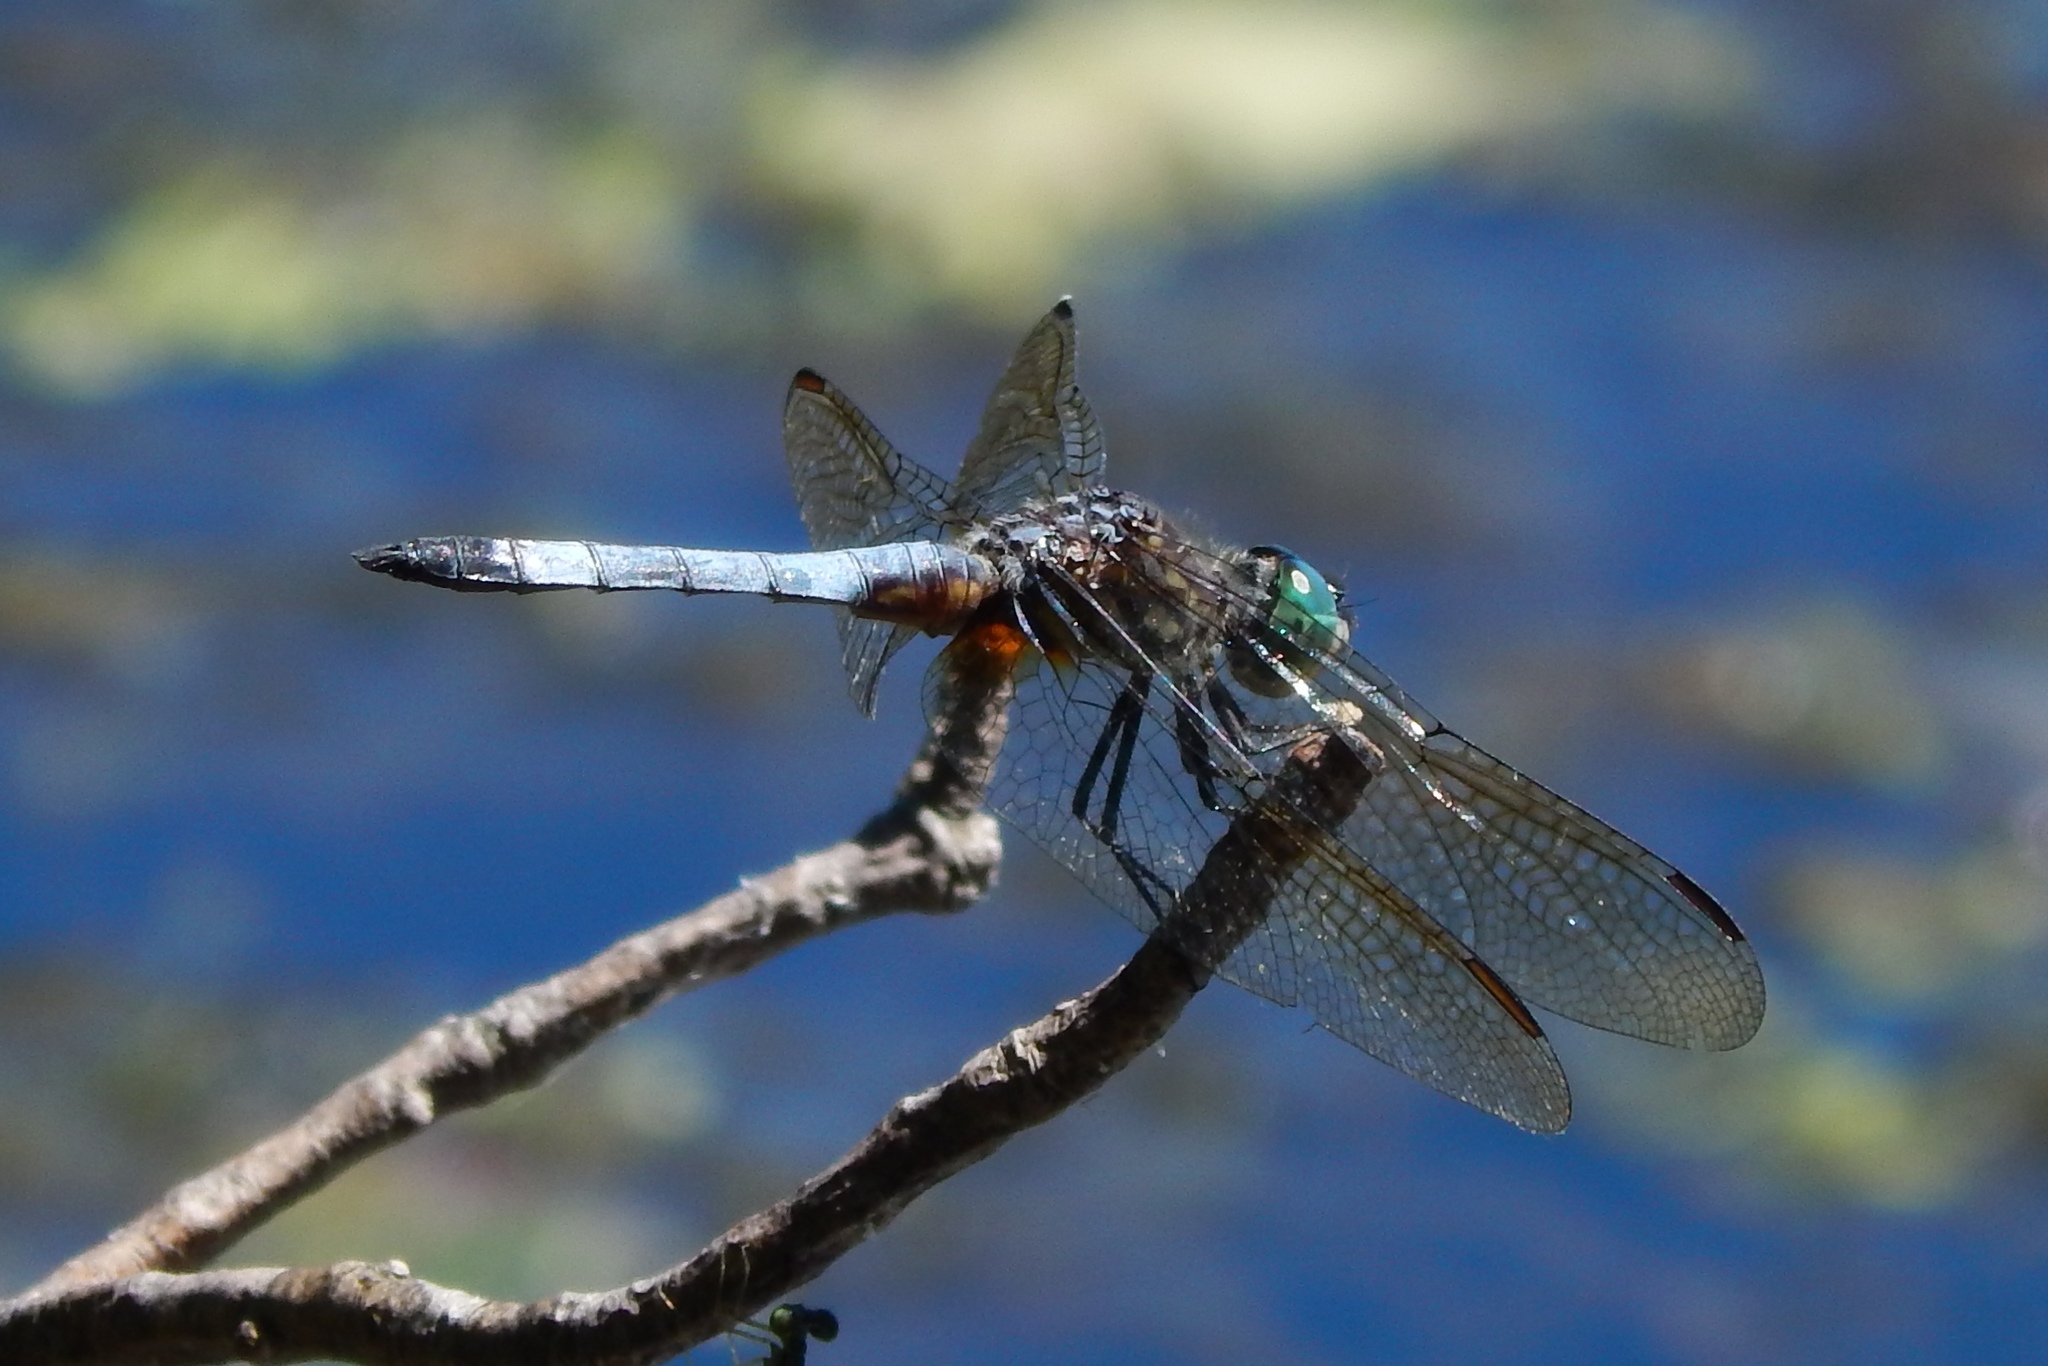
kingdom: Animalia
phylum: Arthropoda
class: Insecta
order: Odonata
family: Libellulidae
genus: Pachydiplax
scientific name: Pachydiplax longipennis
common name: Blue dasher
